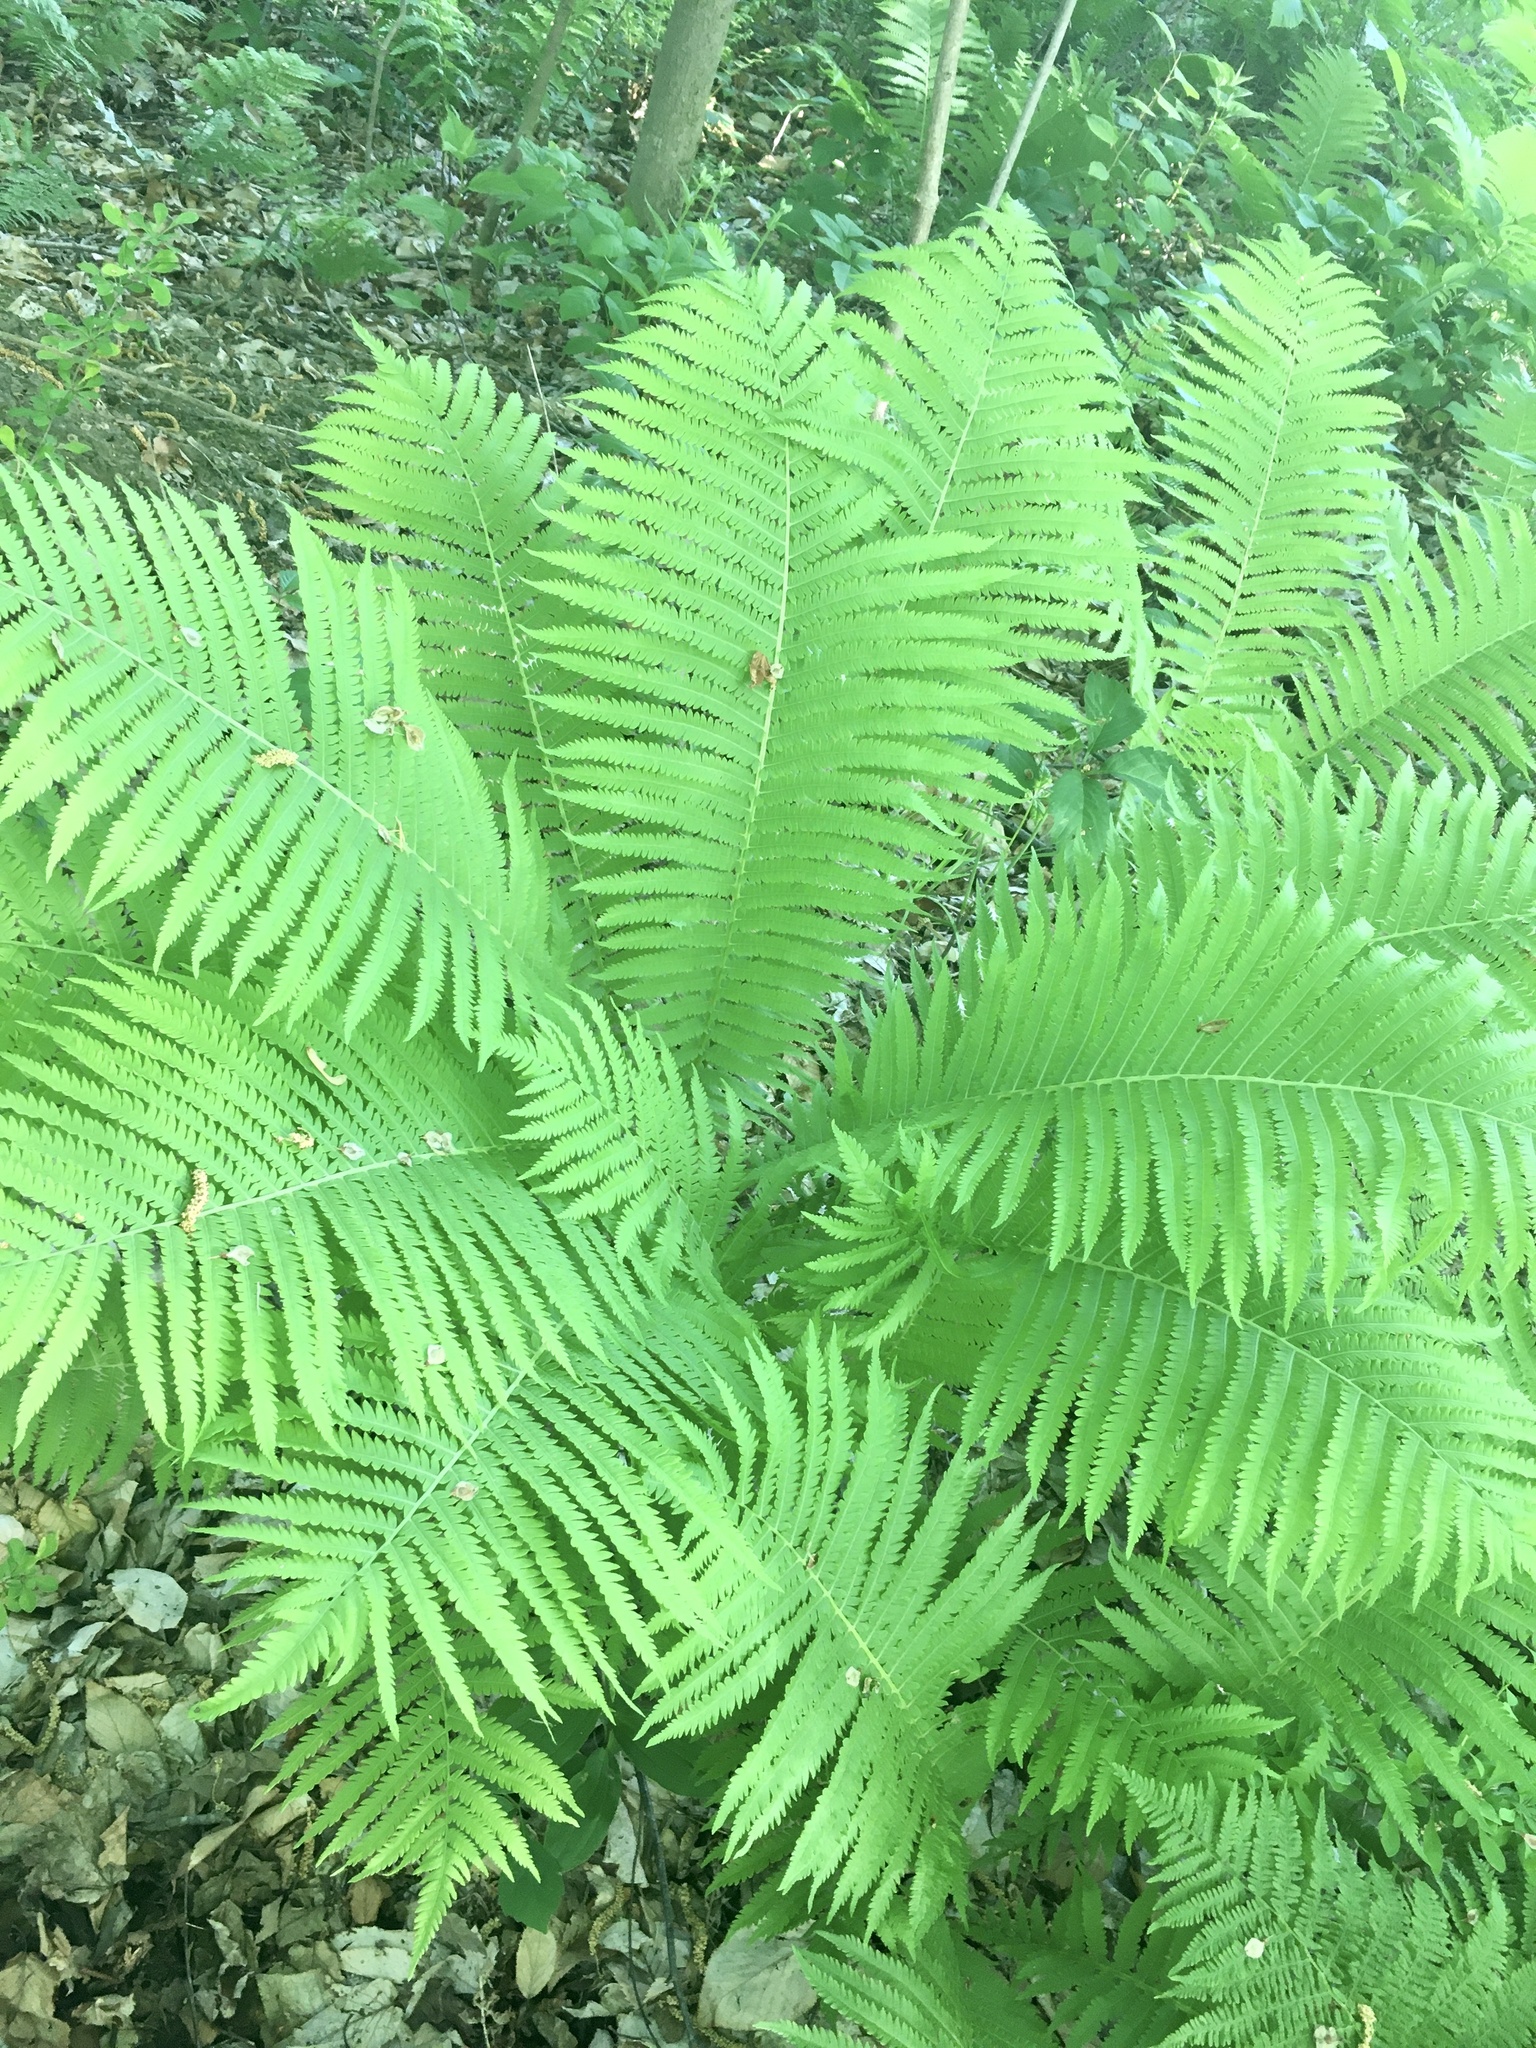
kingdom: Plantae
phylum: Tracheophyta
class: Polypodiopsida
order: Polypodiales
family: Onocleaceae
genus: Matteuccia
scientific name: Matteuccia struthiopteris
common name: Ostrich fern
